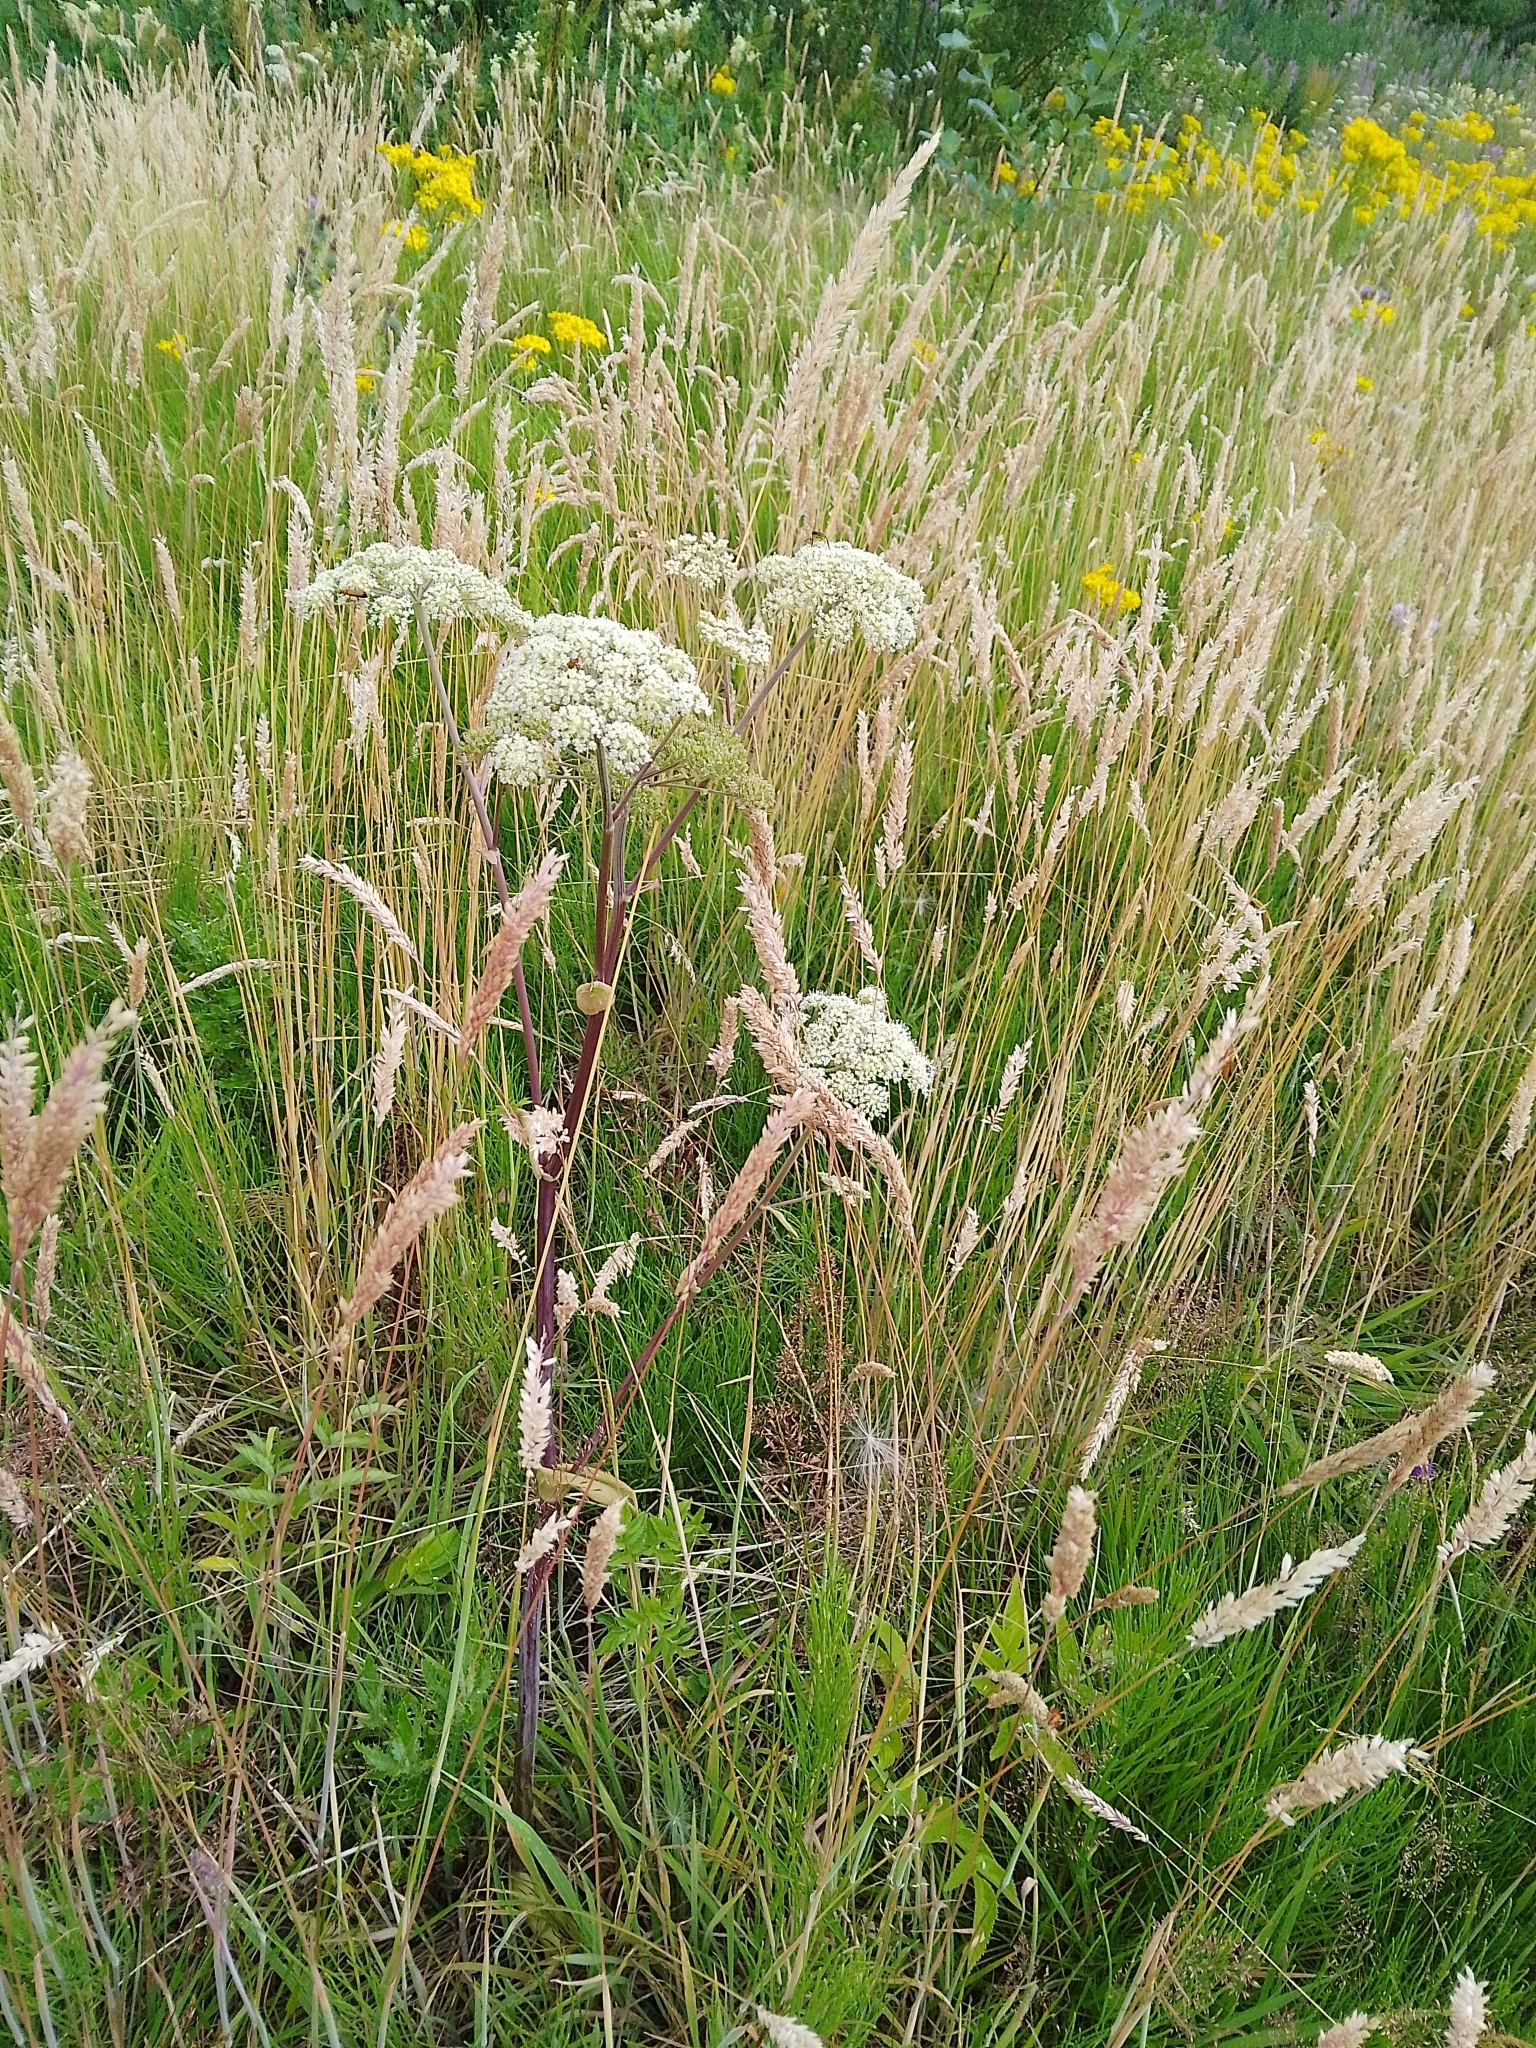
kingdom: Plantae
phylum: Tracheophyta
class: Magnoliopsida
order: Apiales
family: Apiaceae
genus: Angelica
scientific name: Angelica sylvestris
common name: Wild angelica
